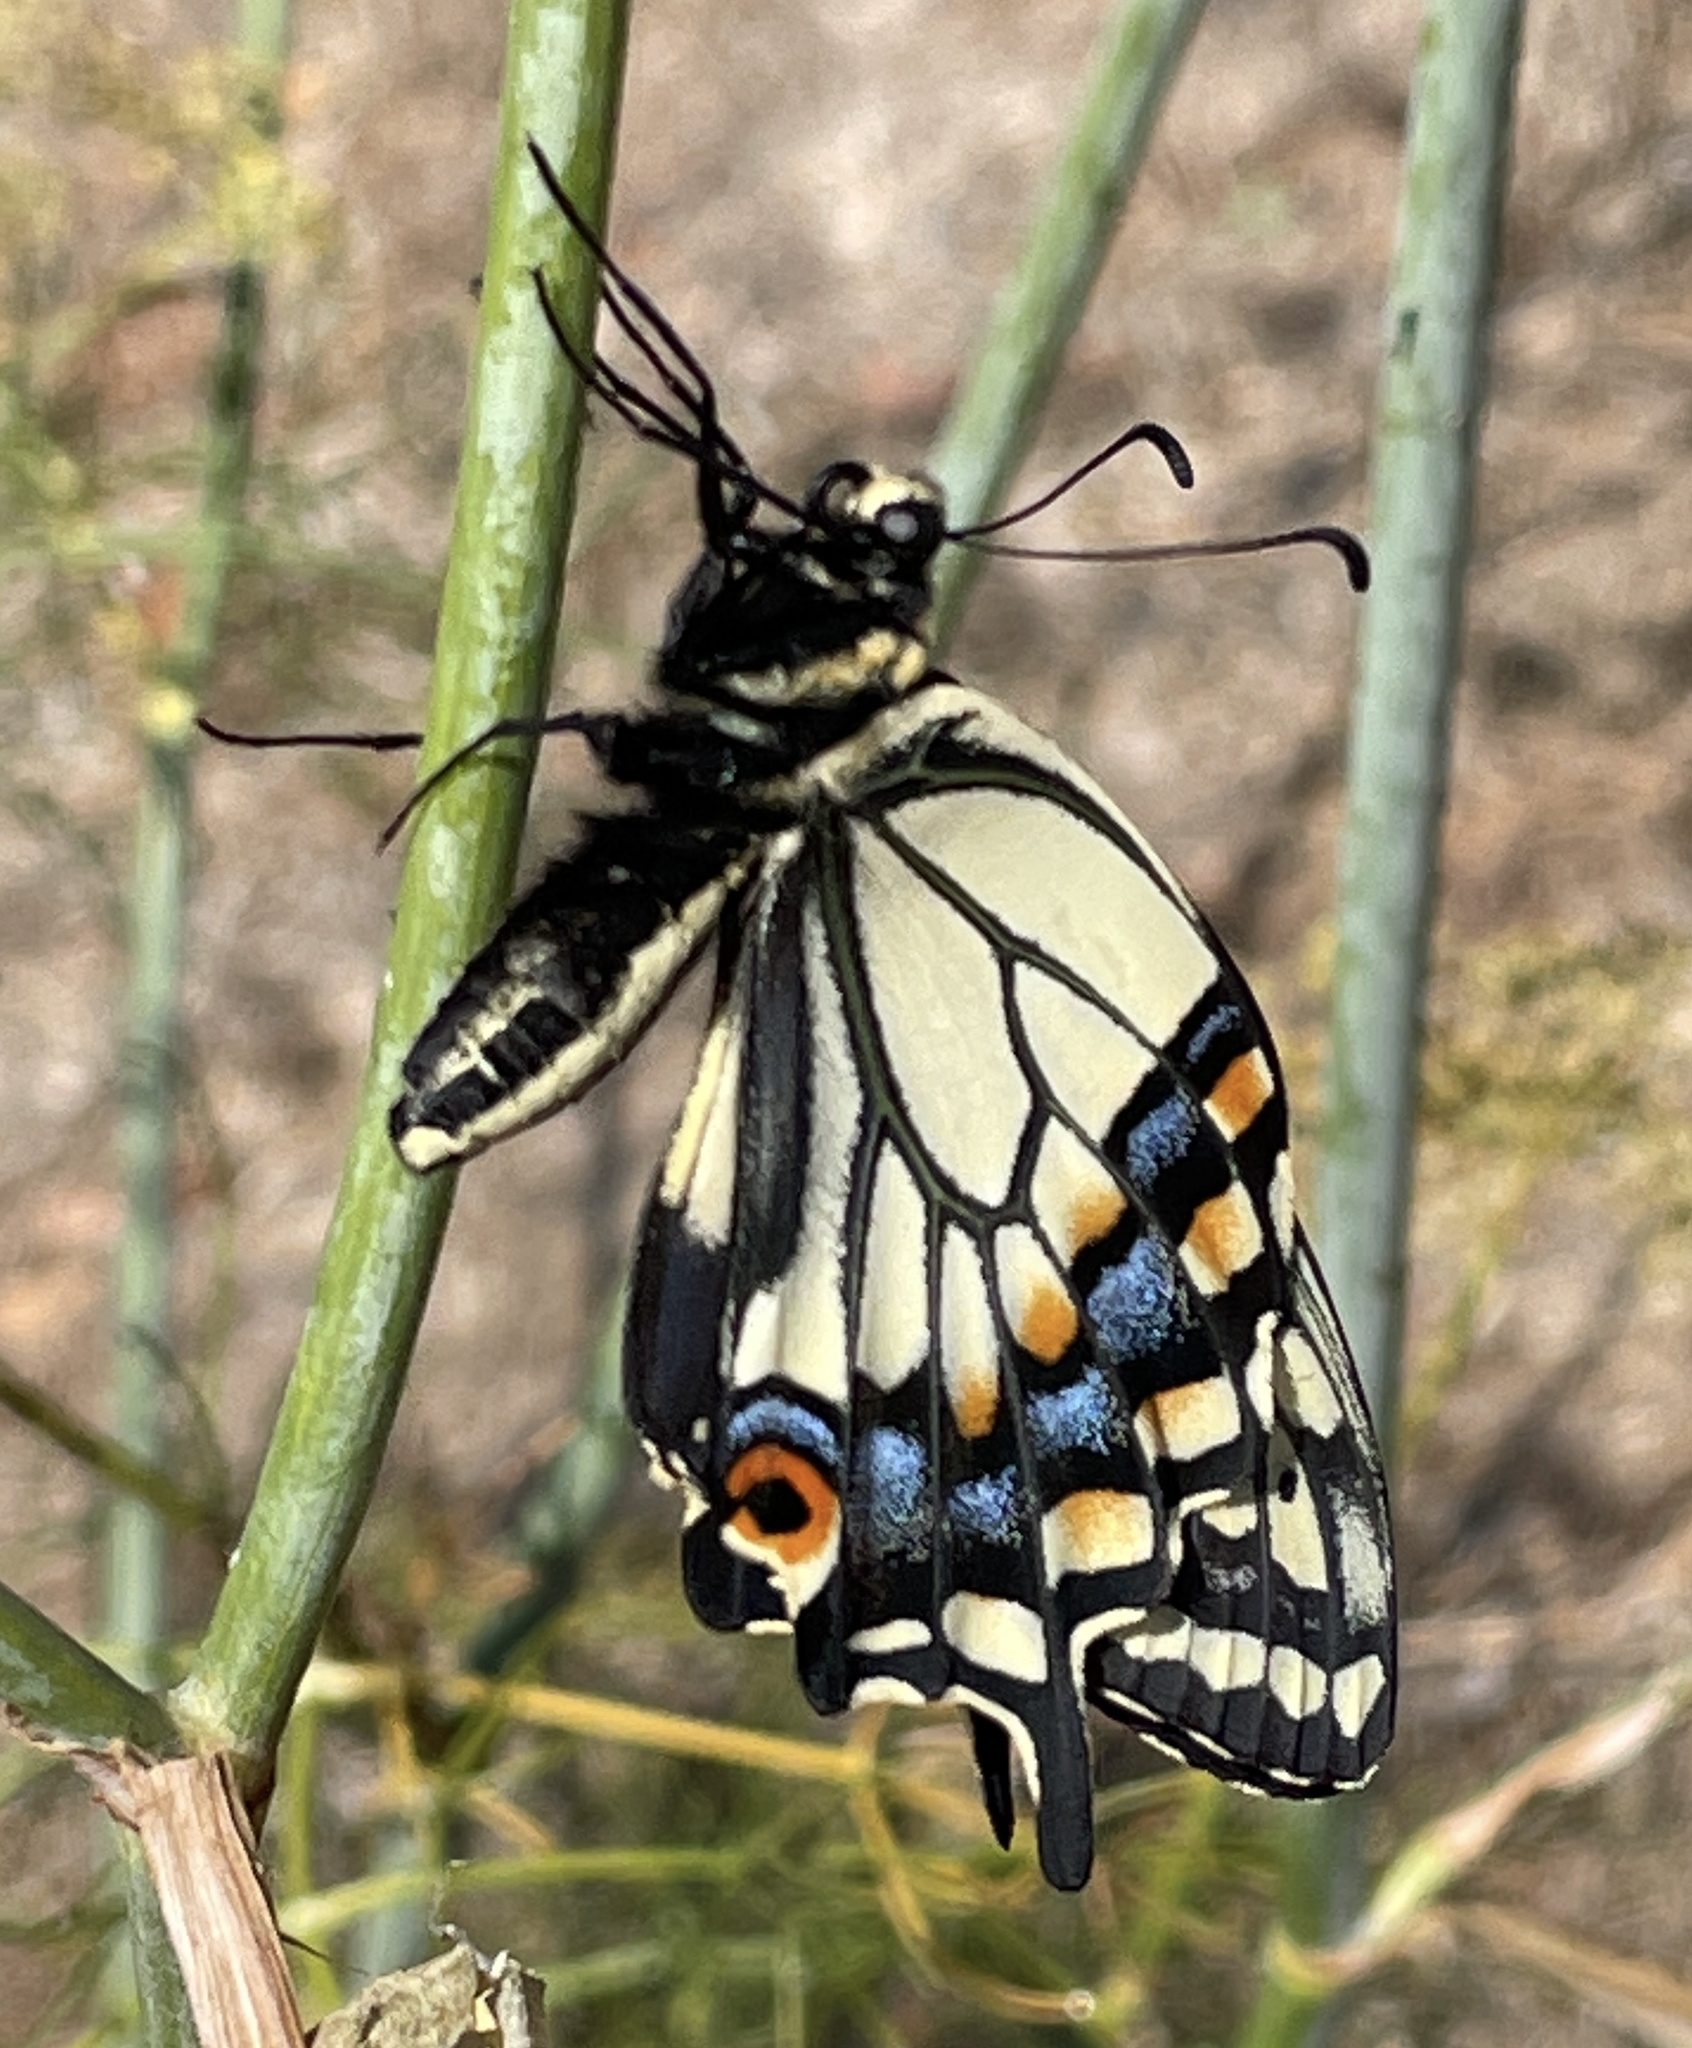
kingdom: Animalia
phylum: Arthropoda
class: Insecta
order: Lepidoptera
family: Papilionidae
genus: Papilio
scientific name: Papilio zelicaon
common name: Anise swallowtail
